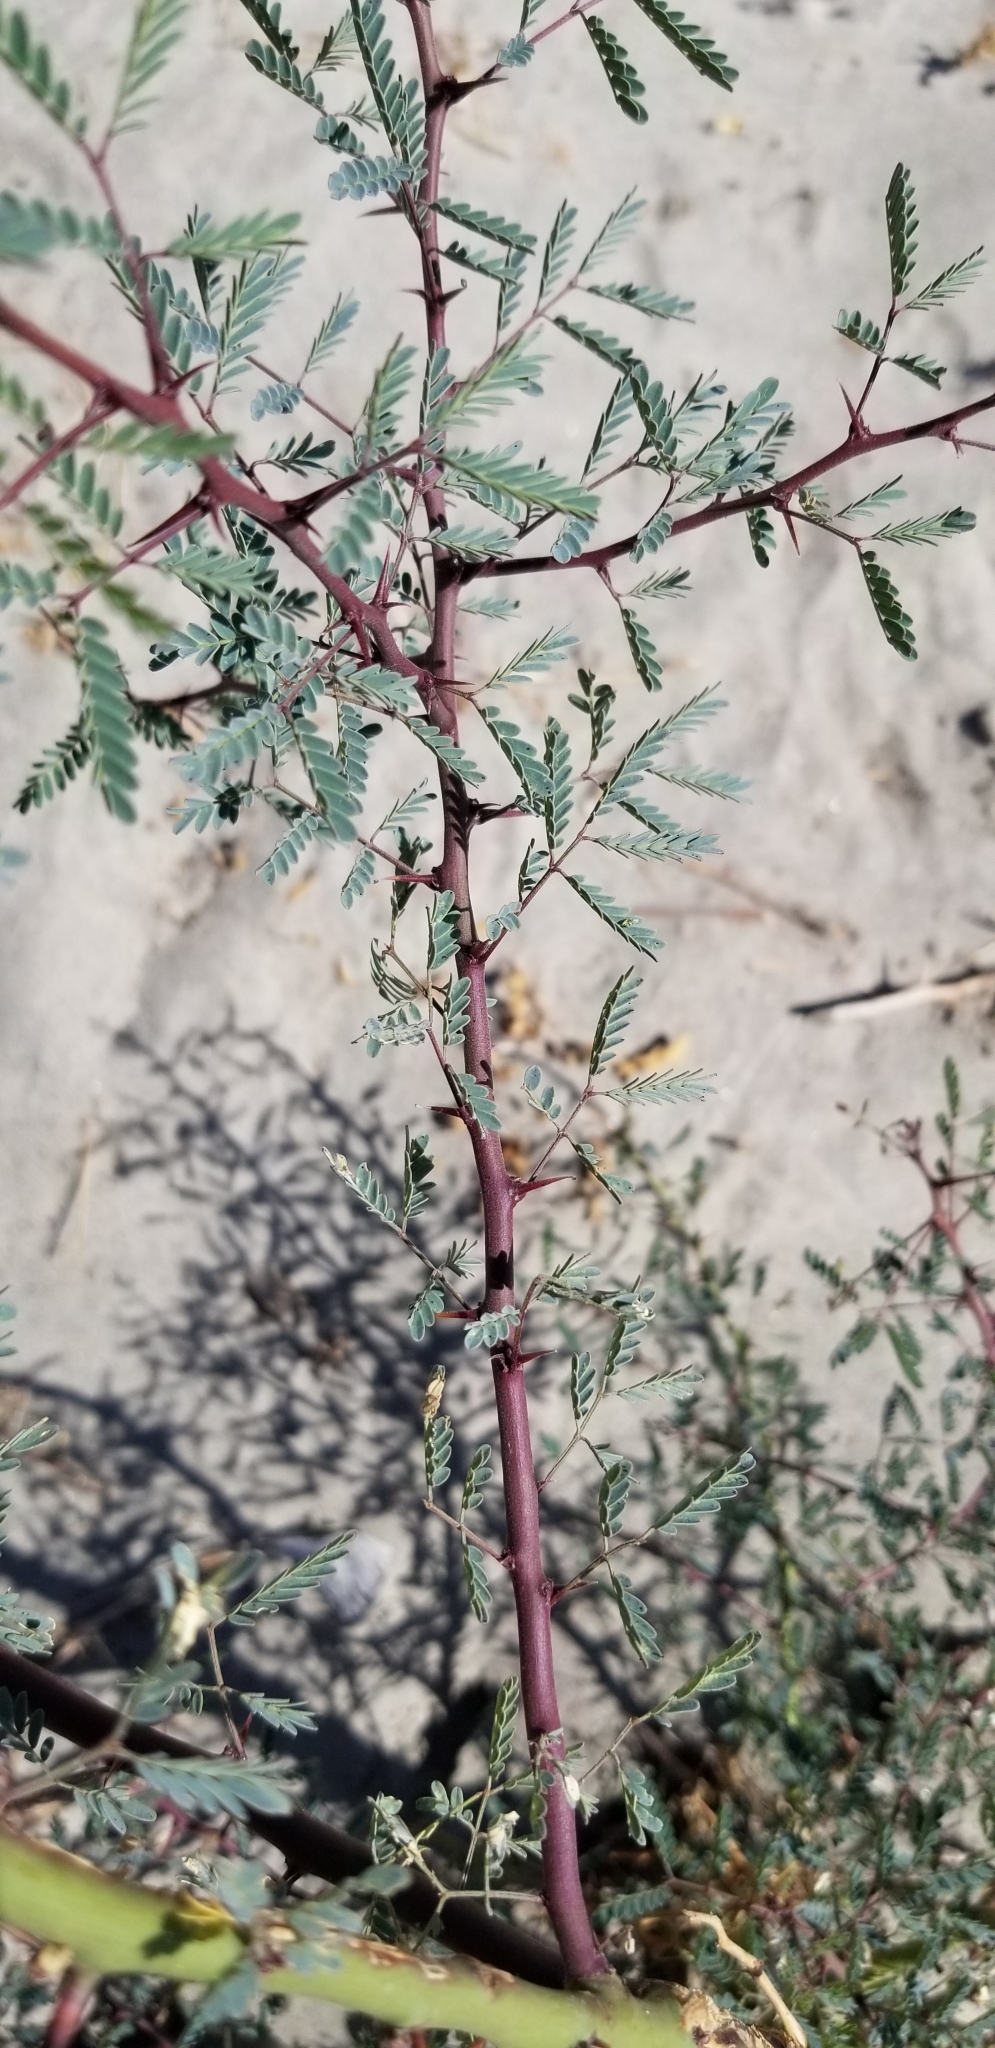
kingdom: Plantae
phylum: Tracheophyta
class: Magnoliopsida
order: Fabales
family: Fabaceae
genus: Prosopis
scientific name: Prosopis pubescens
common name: Screw-bean
